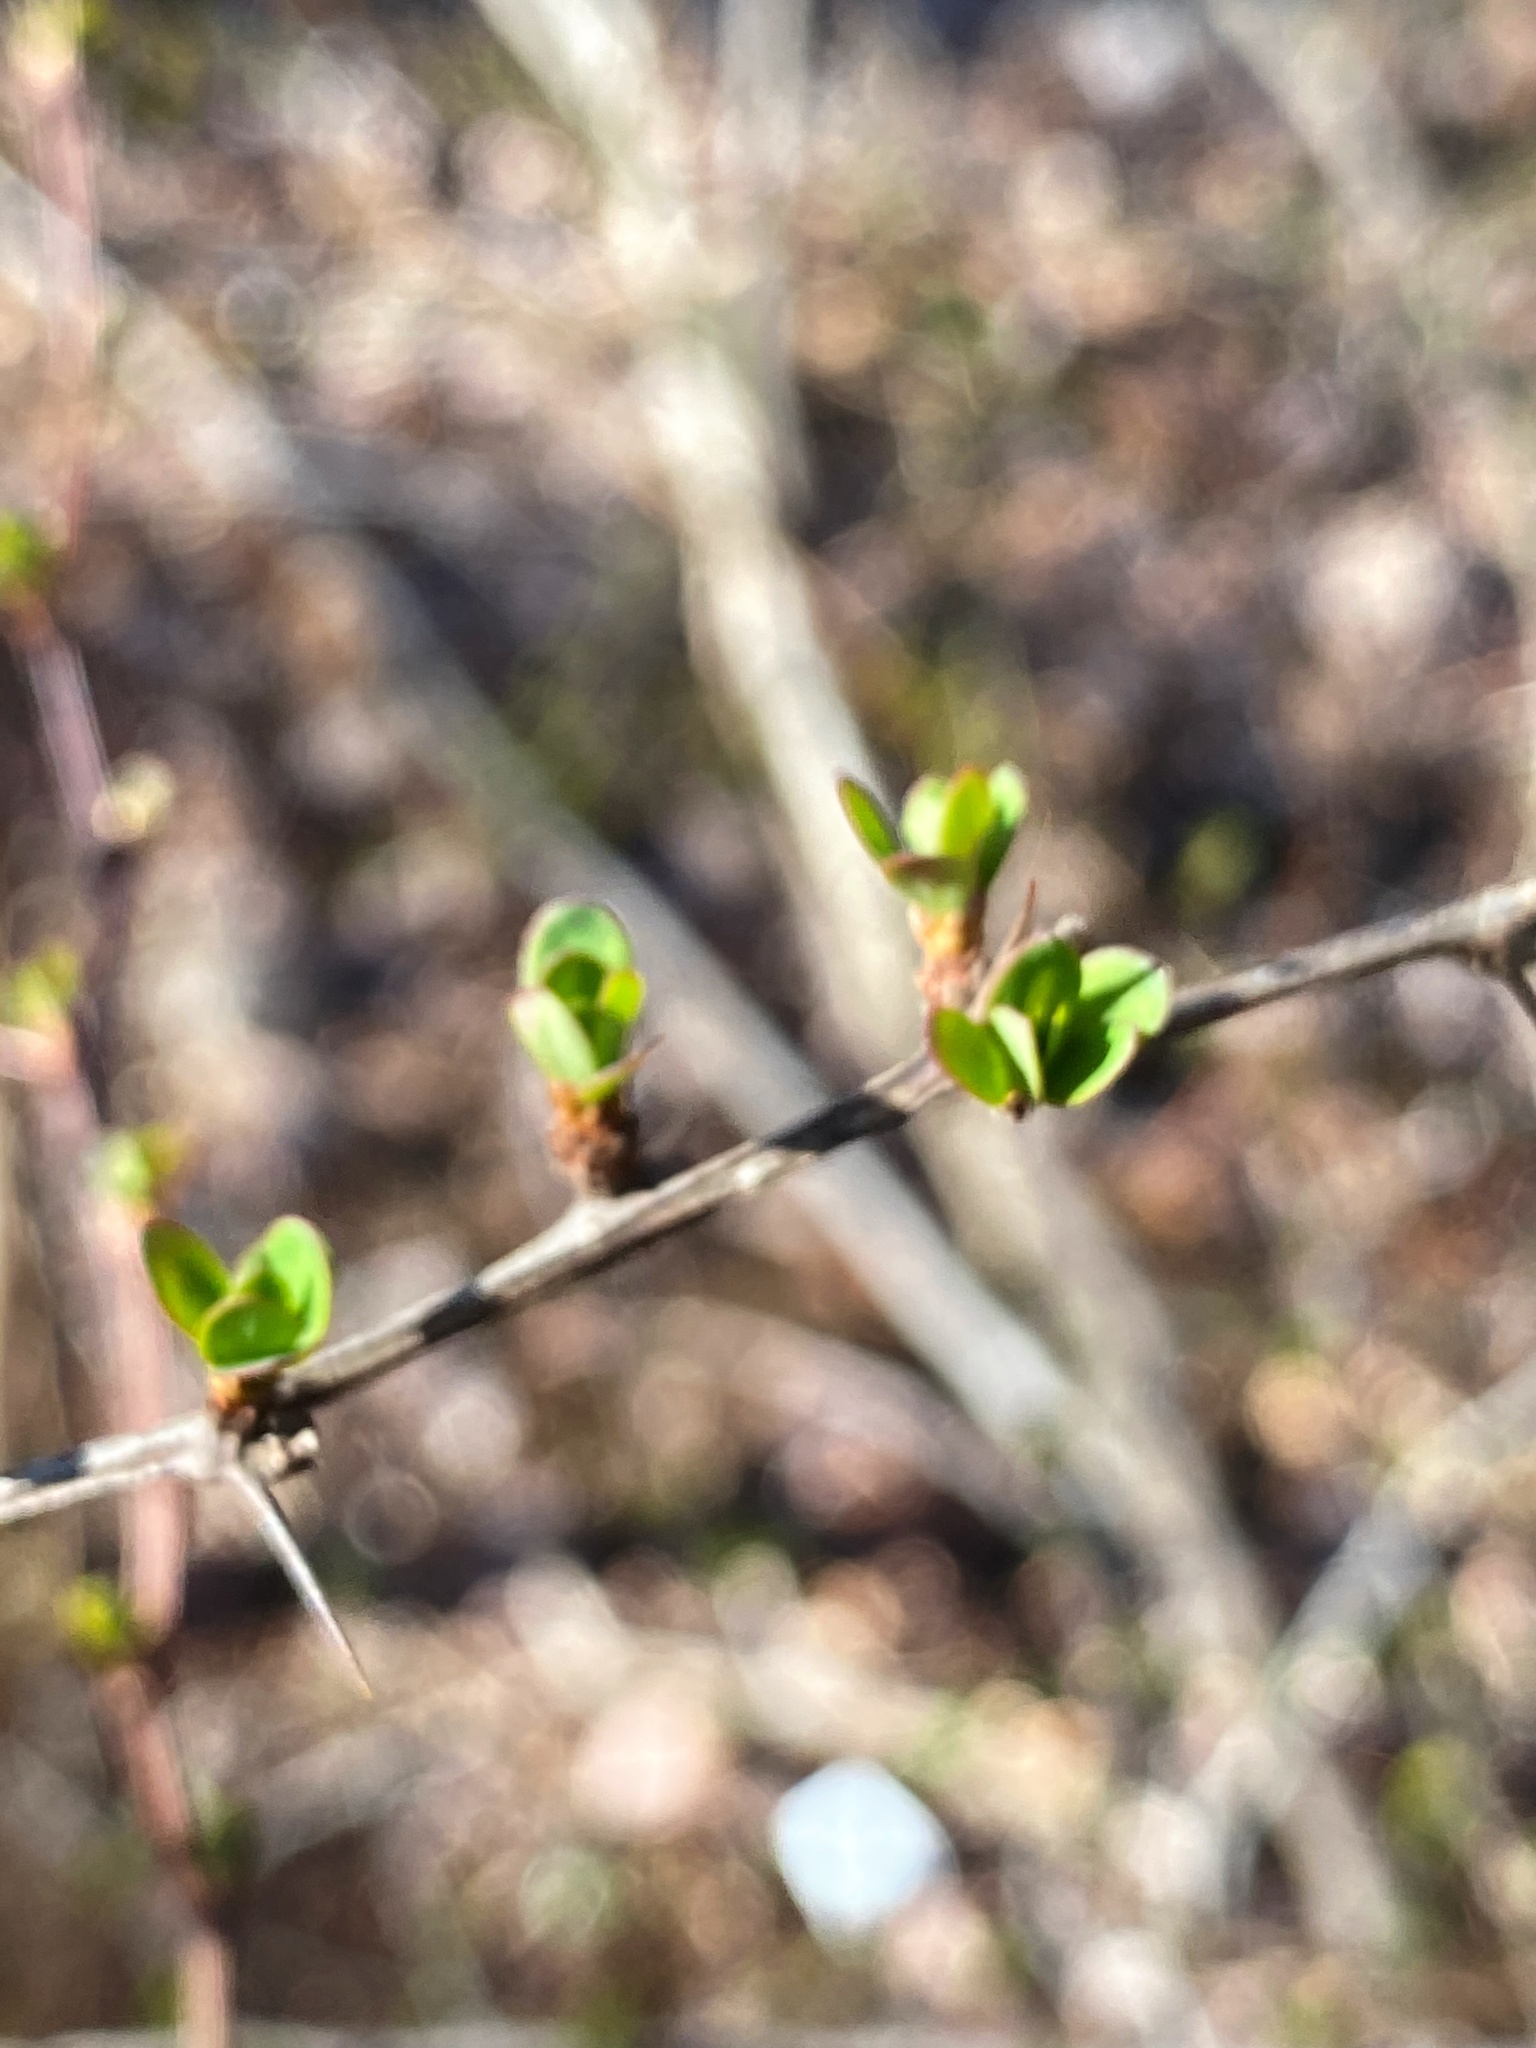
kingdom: Plantae
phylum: Tracheophyta
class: Magnoliopsida
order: Ranunculales
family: Berberidaceae
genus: Berberis
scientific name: Berberis thunbergii
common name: Japanese barberry
